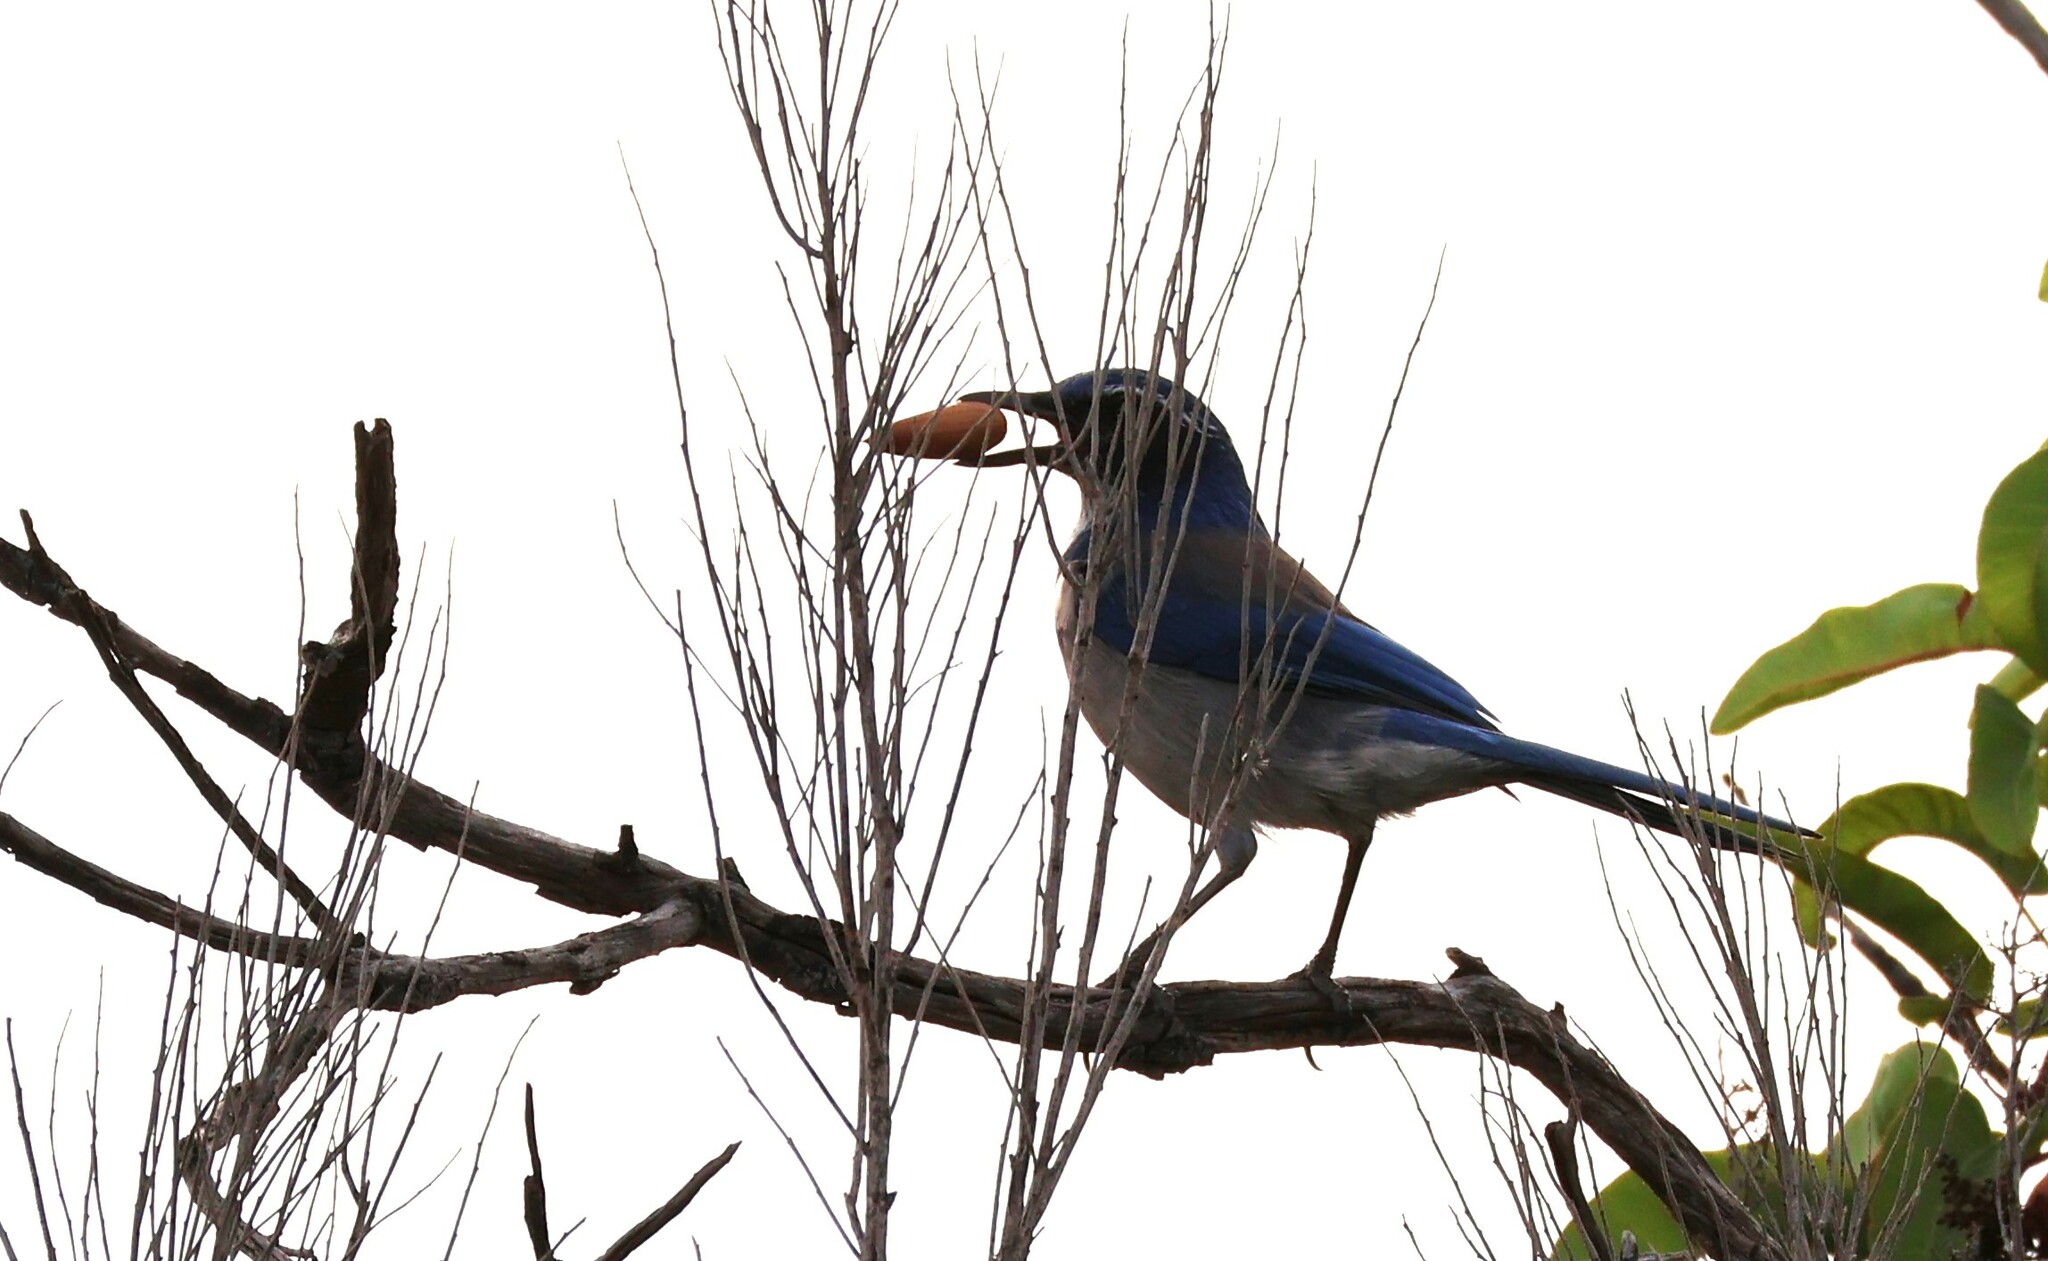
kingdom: Animalia
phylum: Chordata
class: Aves
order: Passeriformes
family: Corvidae
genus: Aphelocoma
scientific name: Aphelocoma californica
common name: California scrub-jay
